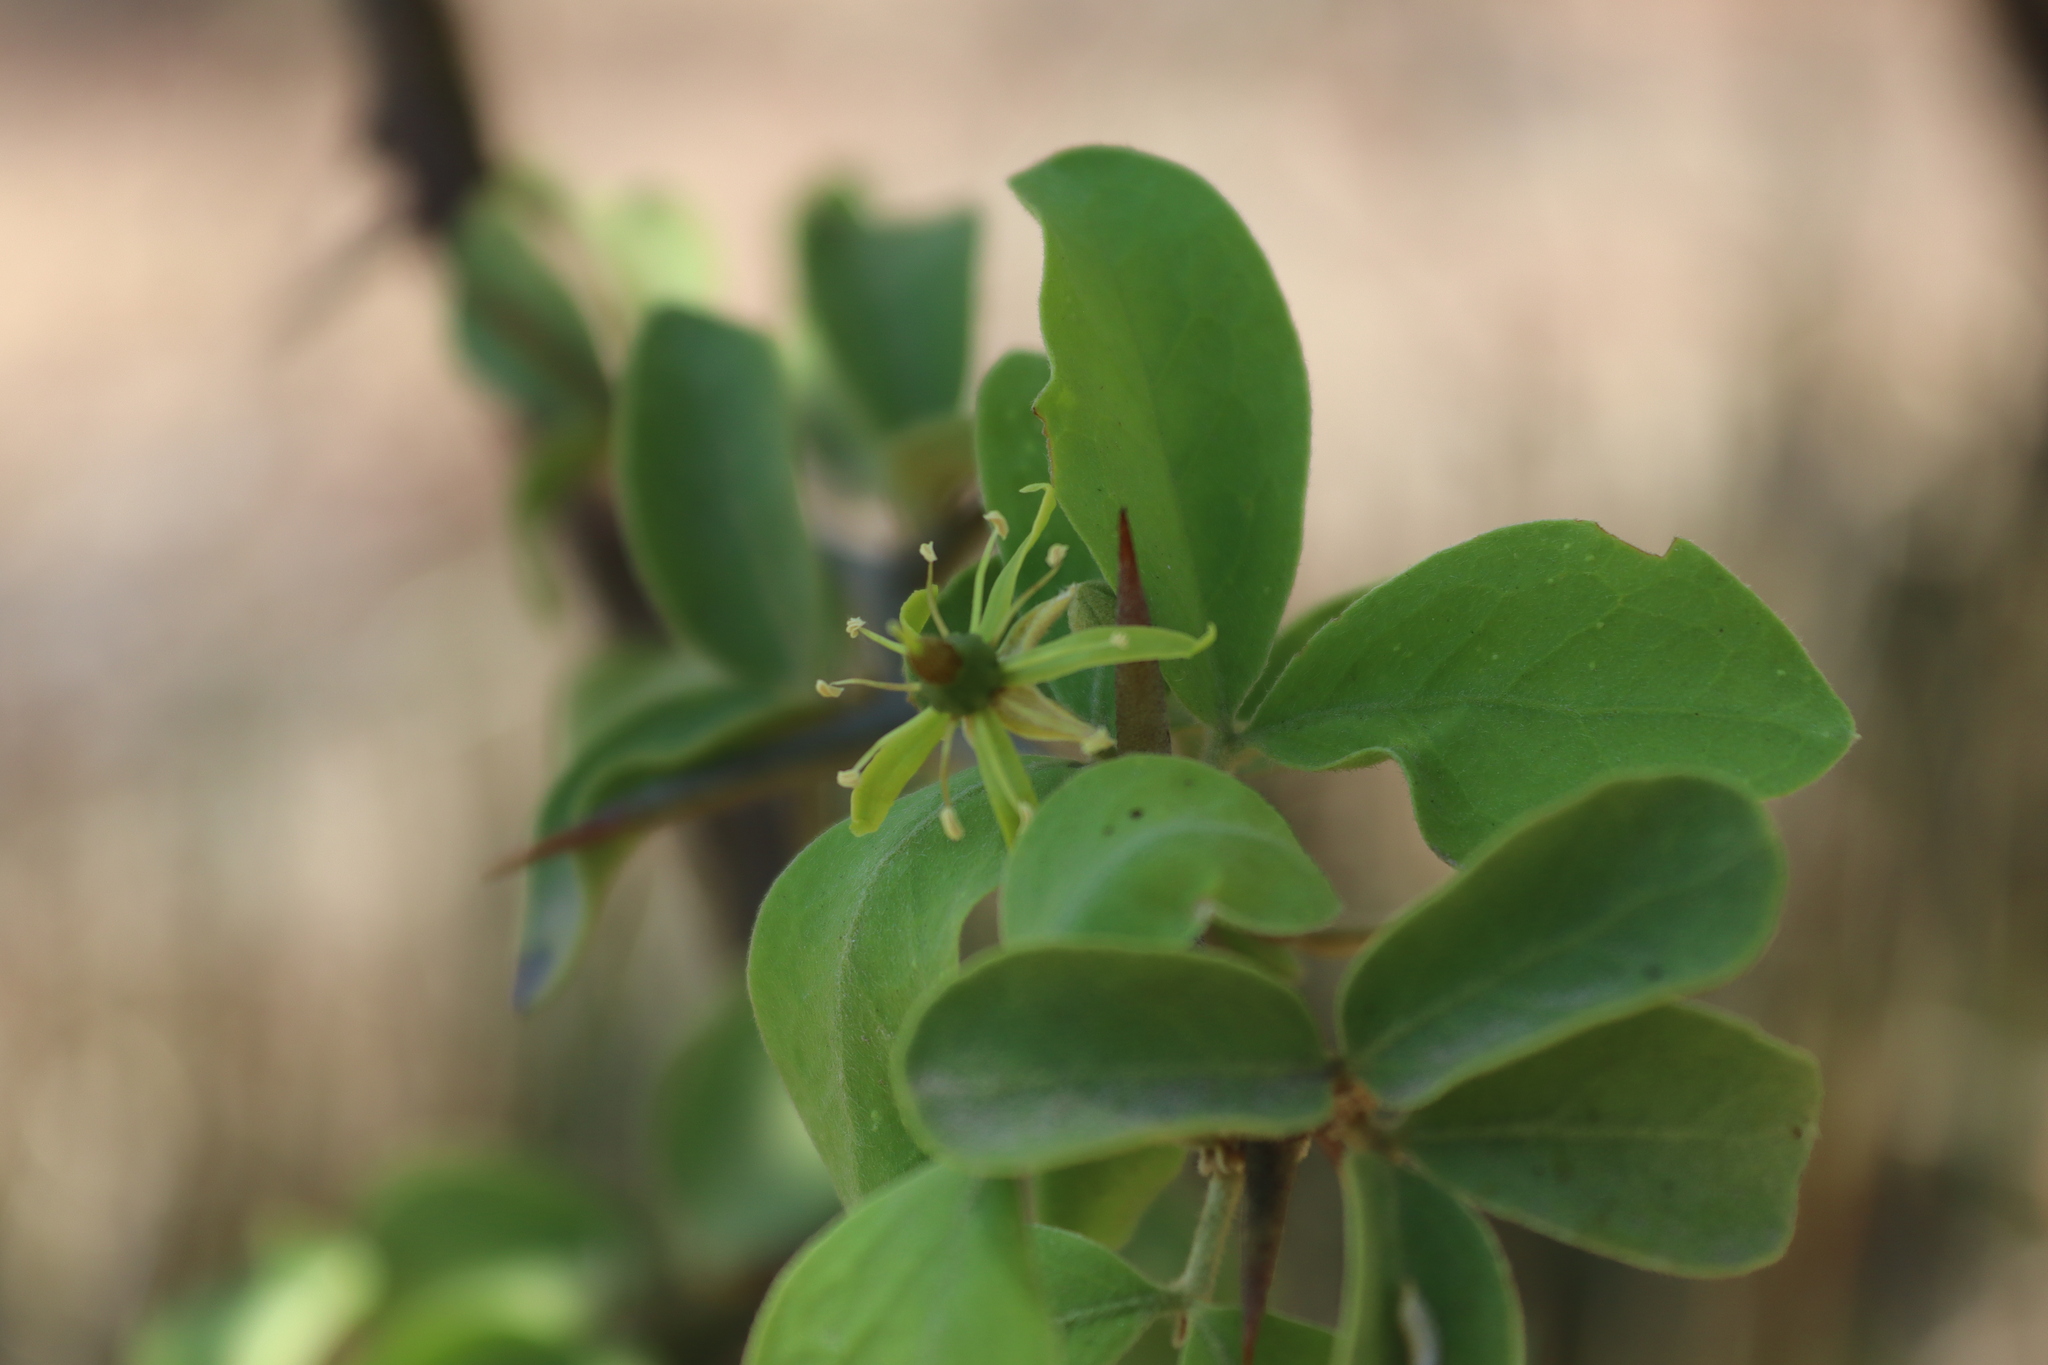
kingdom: Plantae
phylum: Tracheophyta
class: Magnoliopsida
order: Santalales
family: Ximeniaceae
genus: Ximenia
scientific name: Ximenia caffra
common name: Large sourplum
